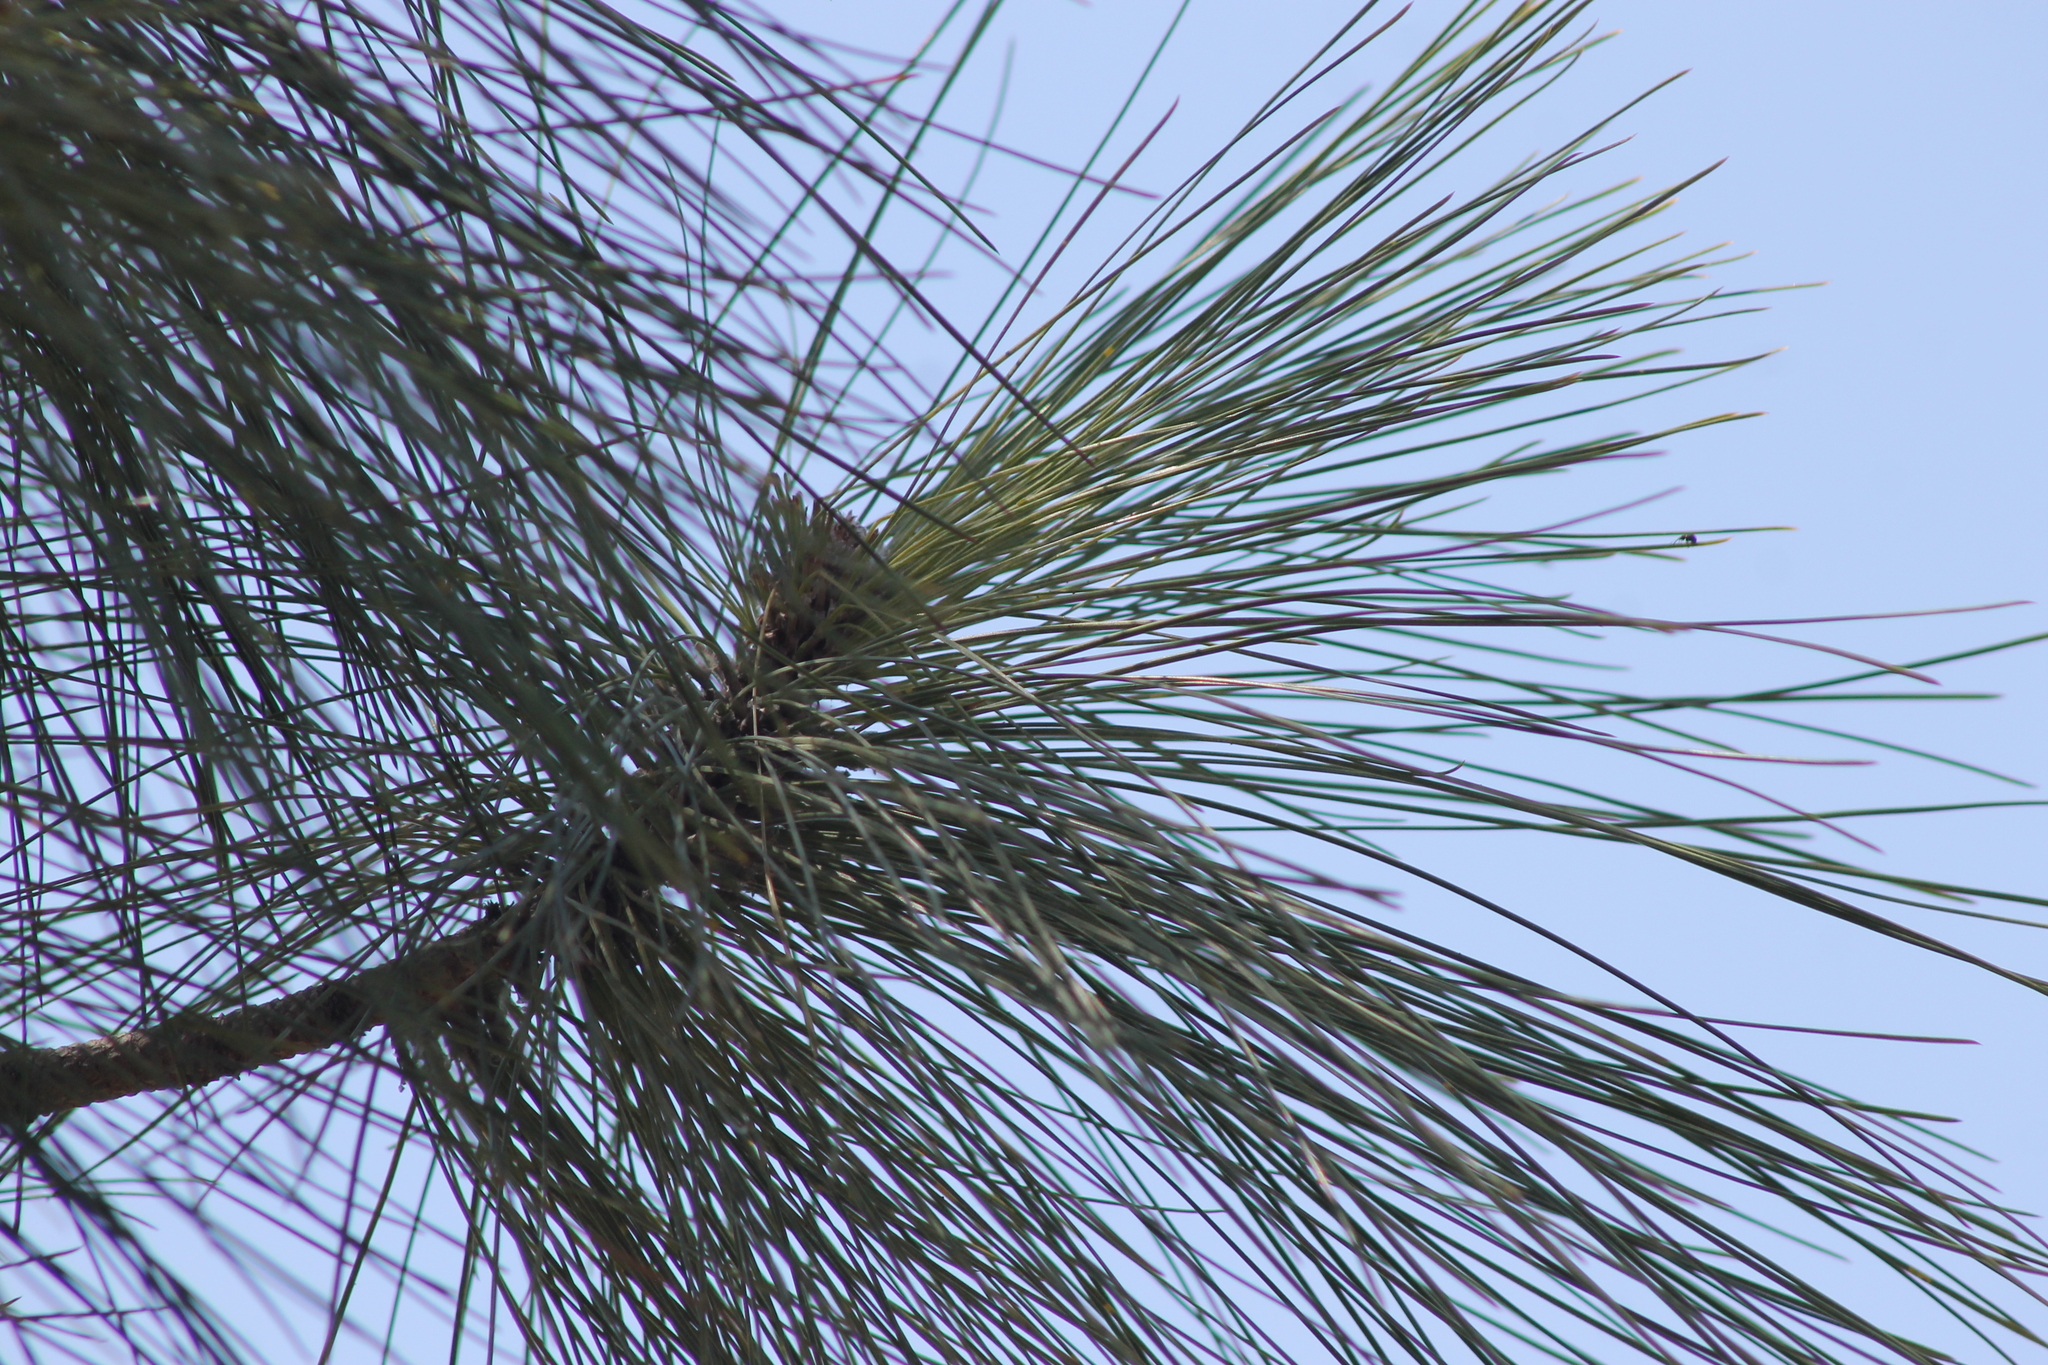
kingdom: Plantae
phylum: Tracheophyta
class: Pinopsida
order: Pinales
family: Pinaceae
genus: Pinus
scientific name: Pinus attenuata
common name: Knobcone pine
